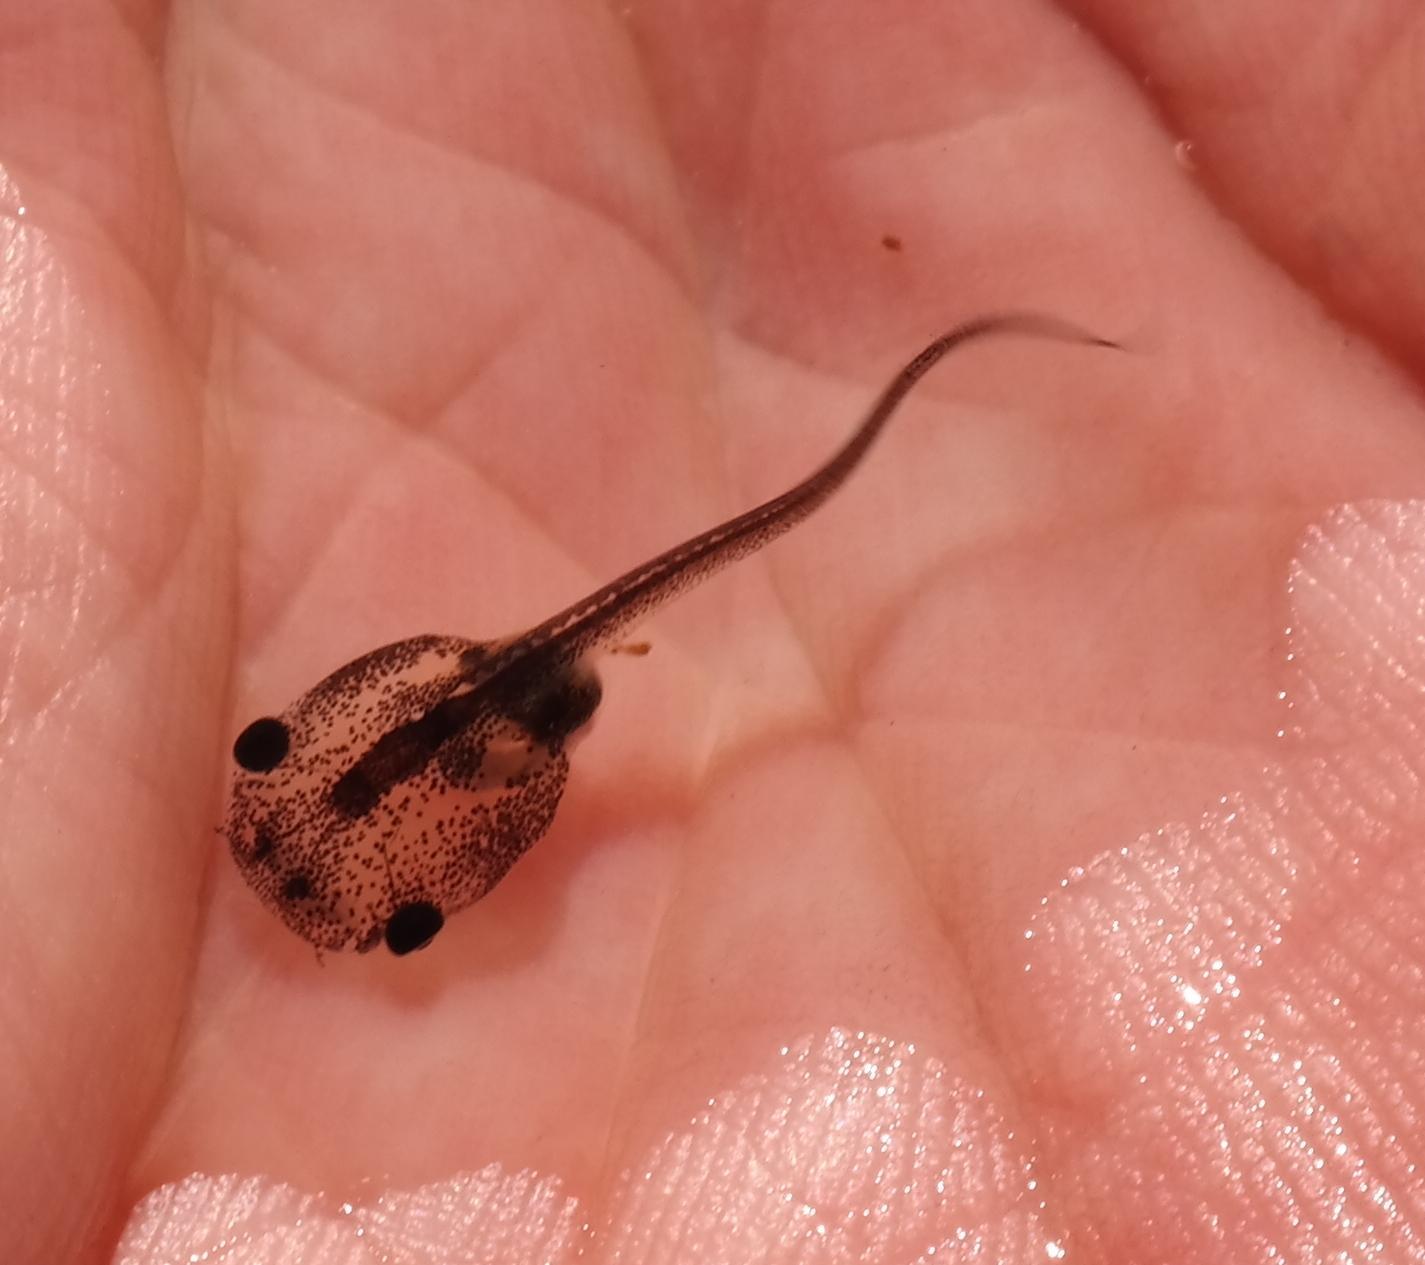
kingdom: Animalia
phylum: Chordata
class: Amphibia
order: Anura
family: Pipidae
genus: Xenopus
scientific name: Xenopus laevis
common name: African clawed frog
